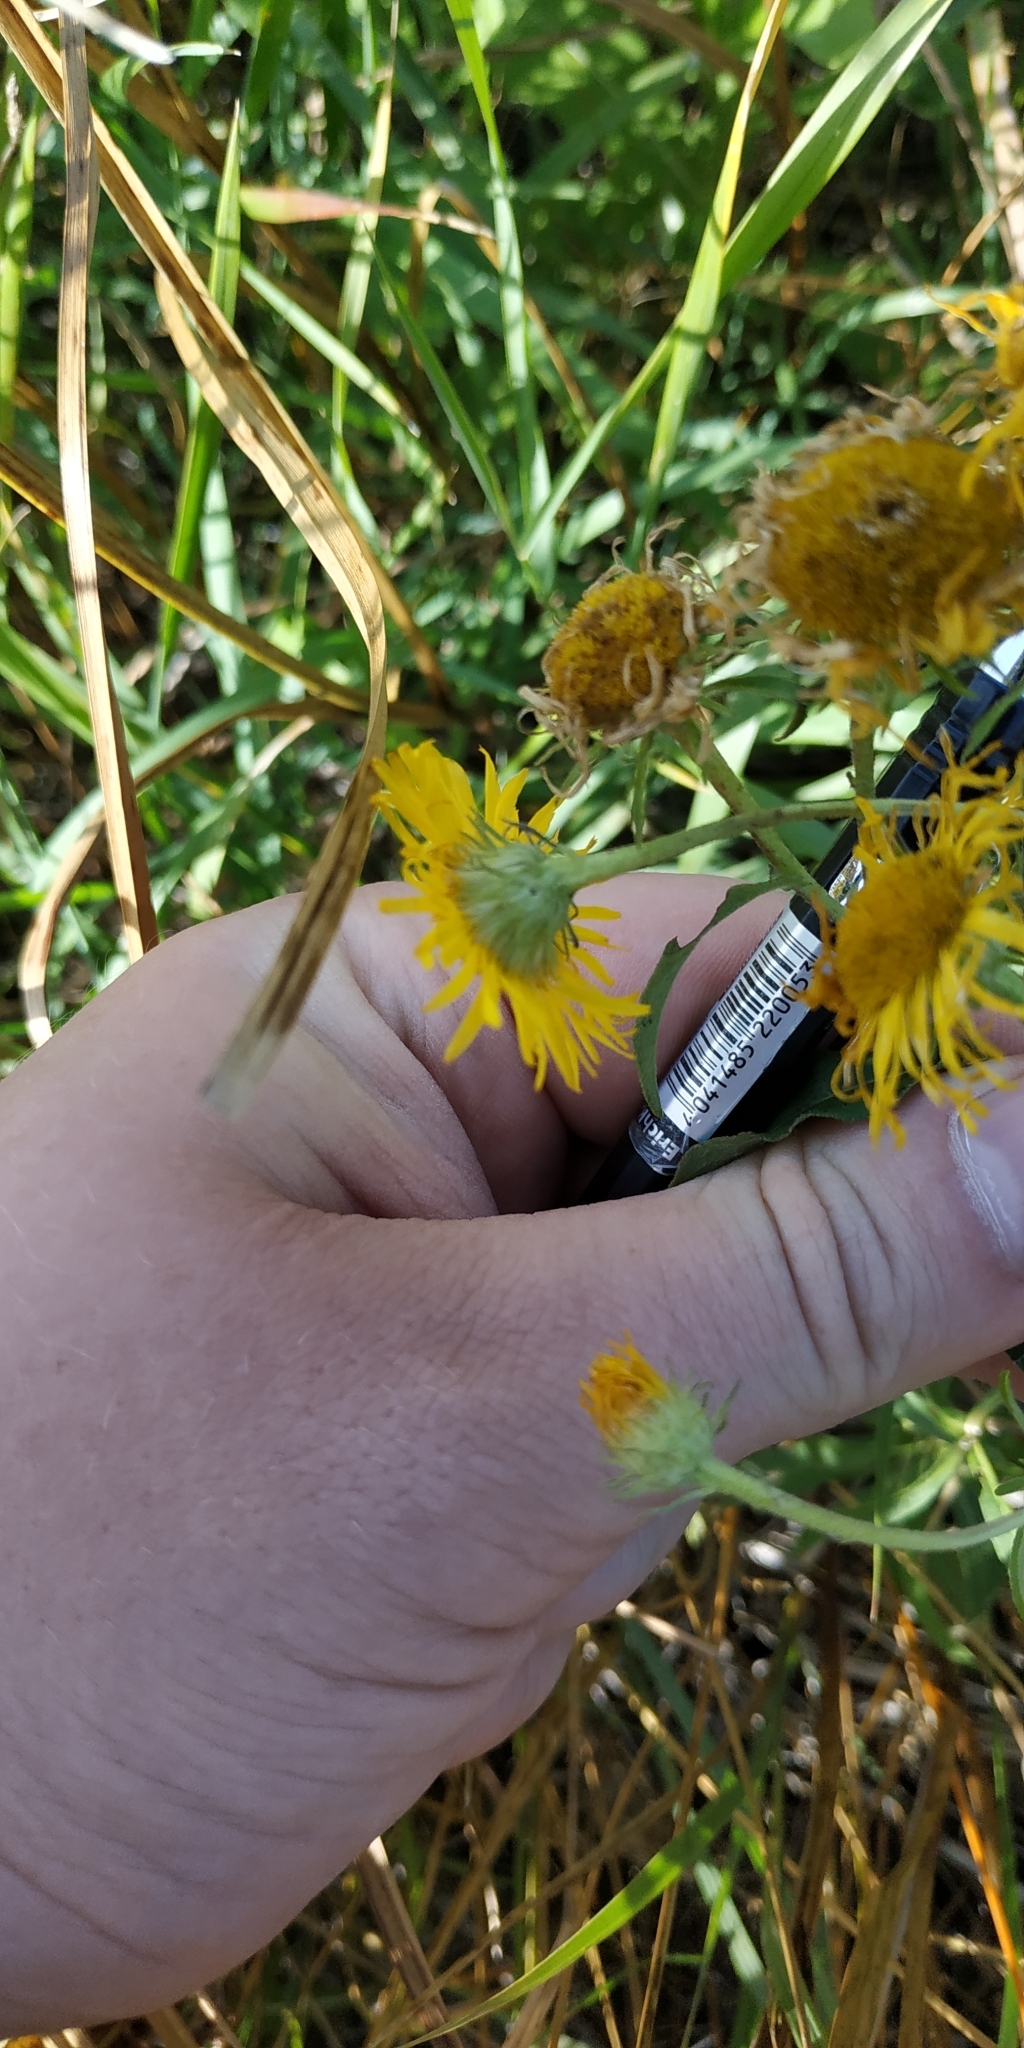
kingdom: Plantae
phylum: Tracheophyta
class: Magnoliopsida
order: Asterales
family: Asteraceae
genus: Pentanema
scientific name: Pentanema britannicum
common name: British elecampane
